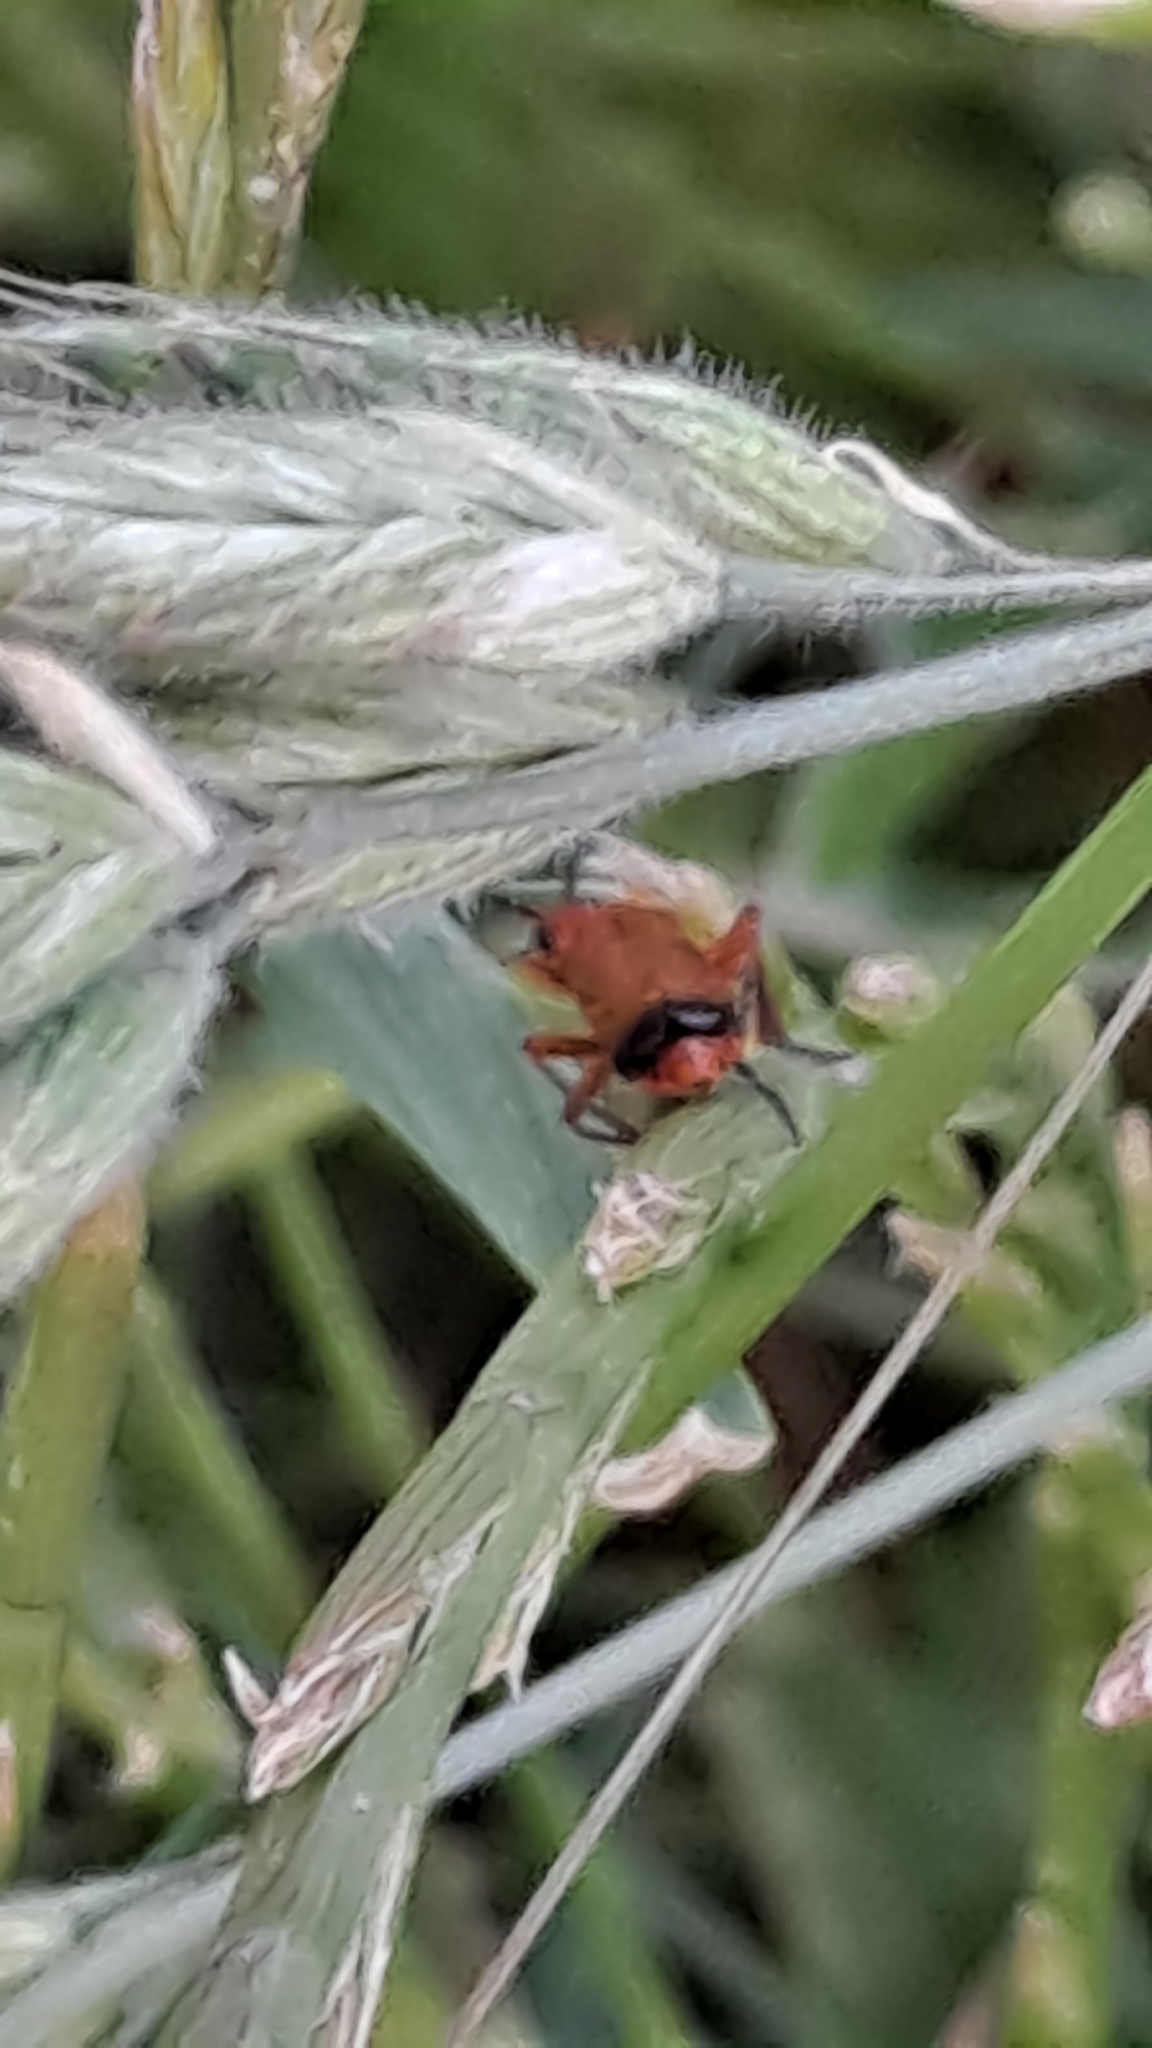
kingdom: Animalia
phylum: Arthropoda
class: Insecta
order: Coleoptera
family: Cantharidae
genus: Rhagonycha
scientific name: Rhagonycha fulva
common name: Common red soldier beetle
